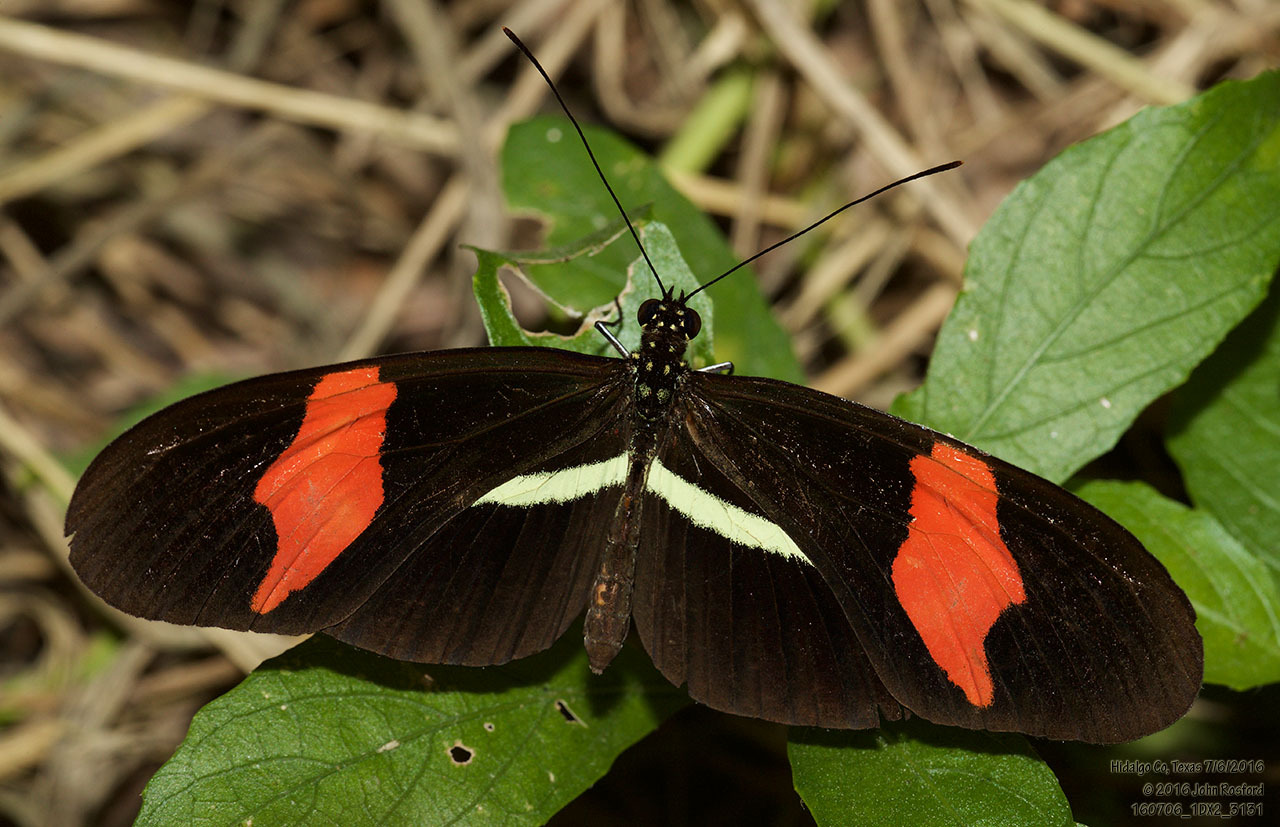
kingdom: Animalia
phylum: Arthropoda
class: Insecta
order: Lepidoptera
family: Nymphalidae
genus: Tirumala
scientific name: Tirumala petiverana
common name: Blue monarch
